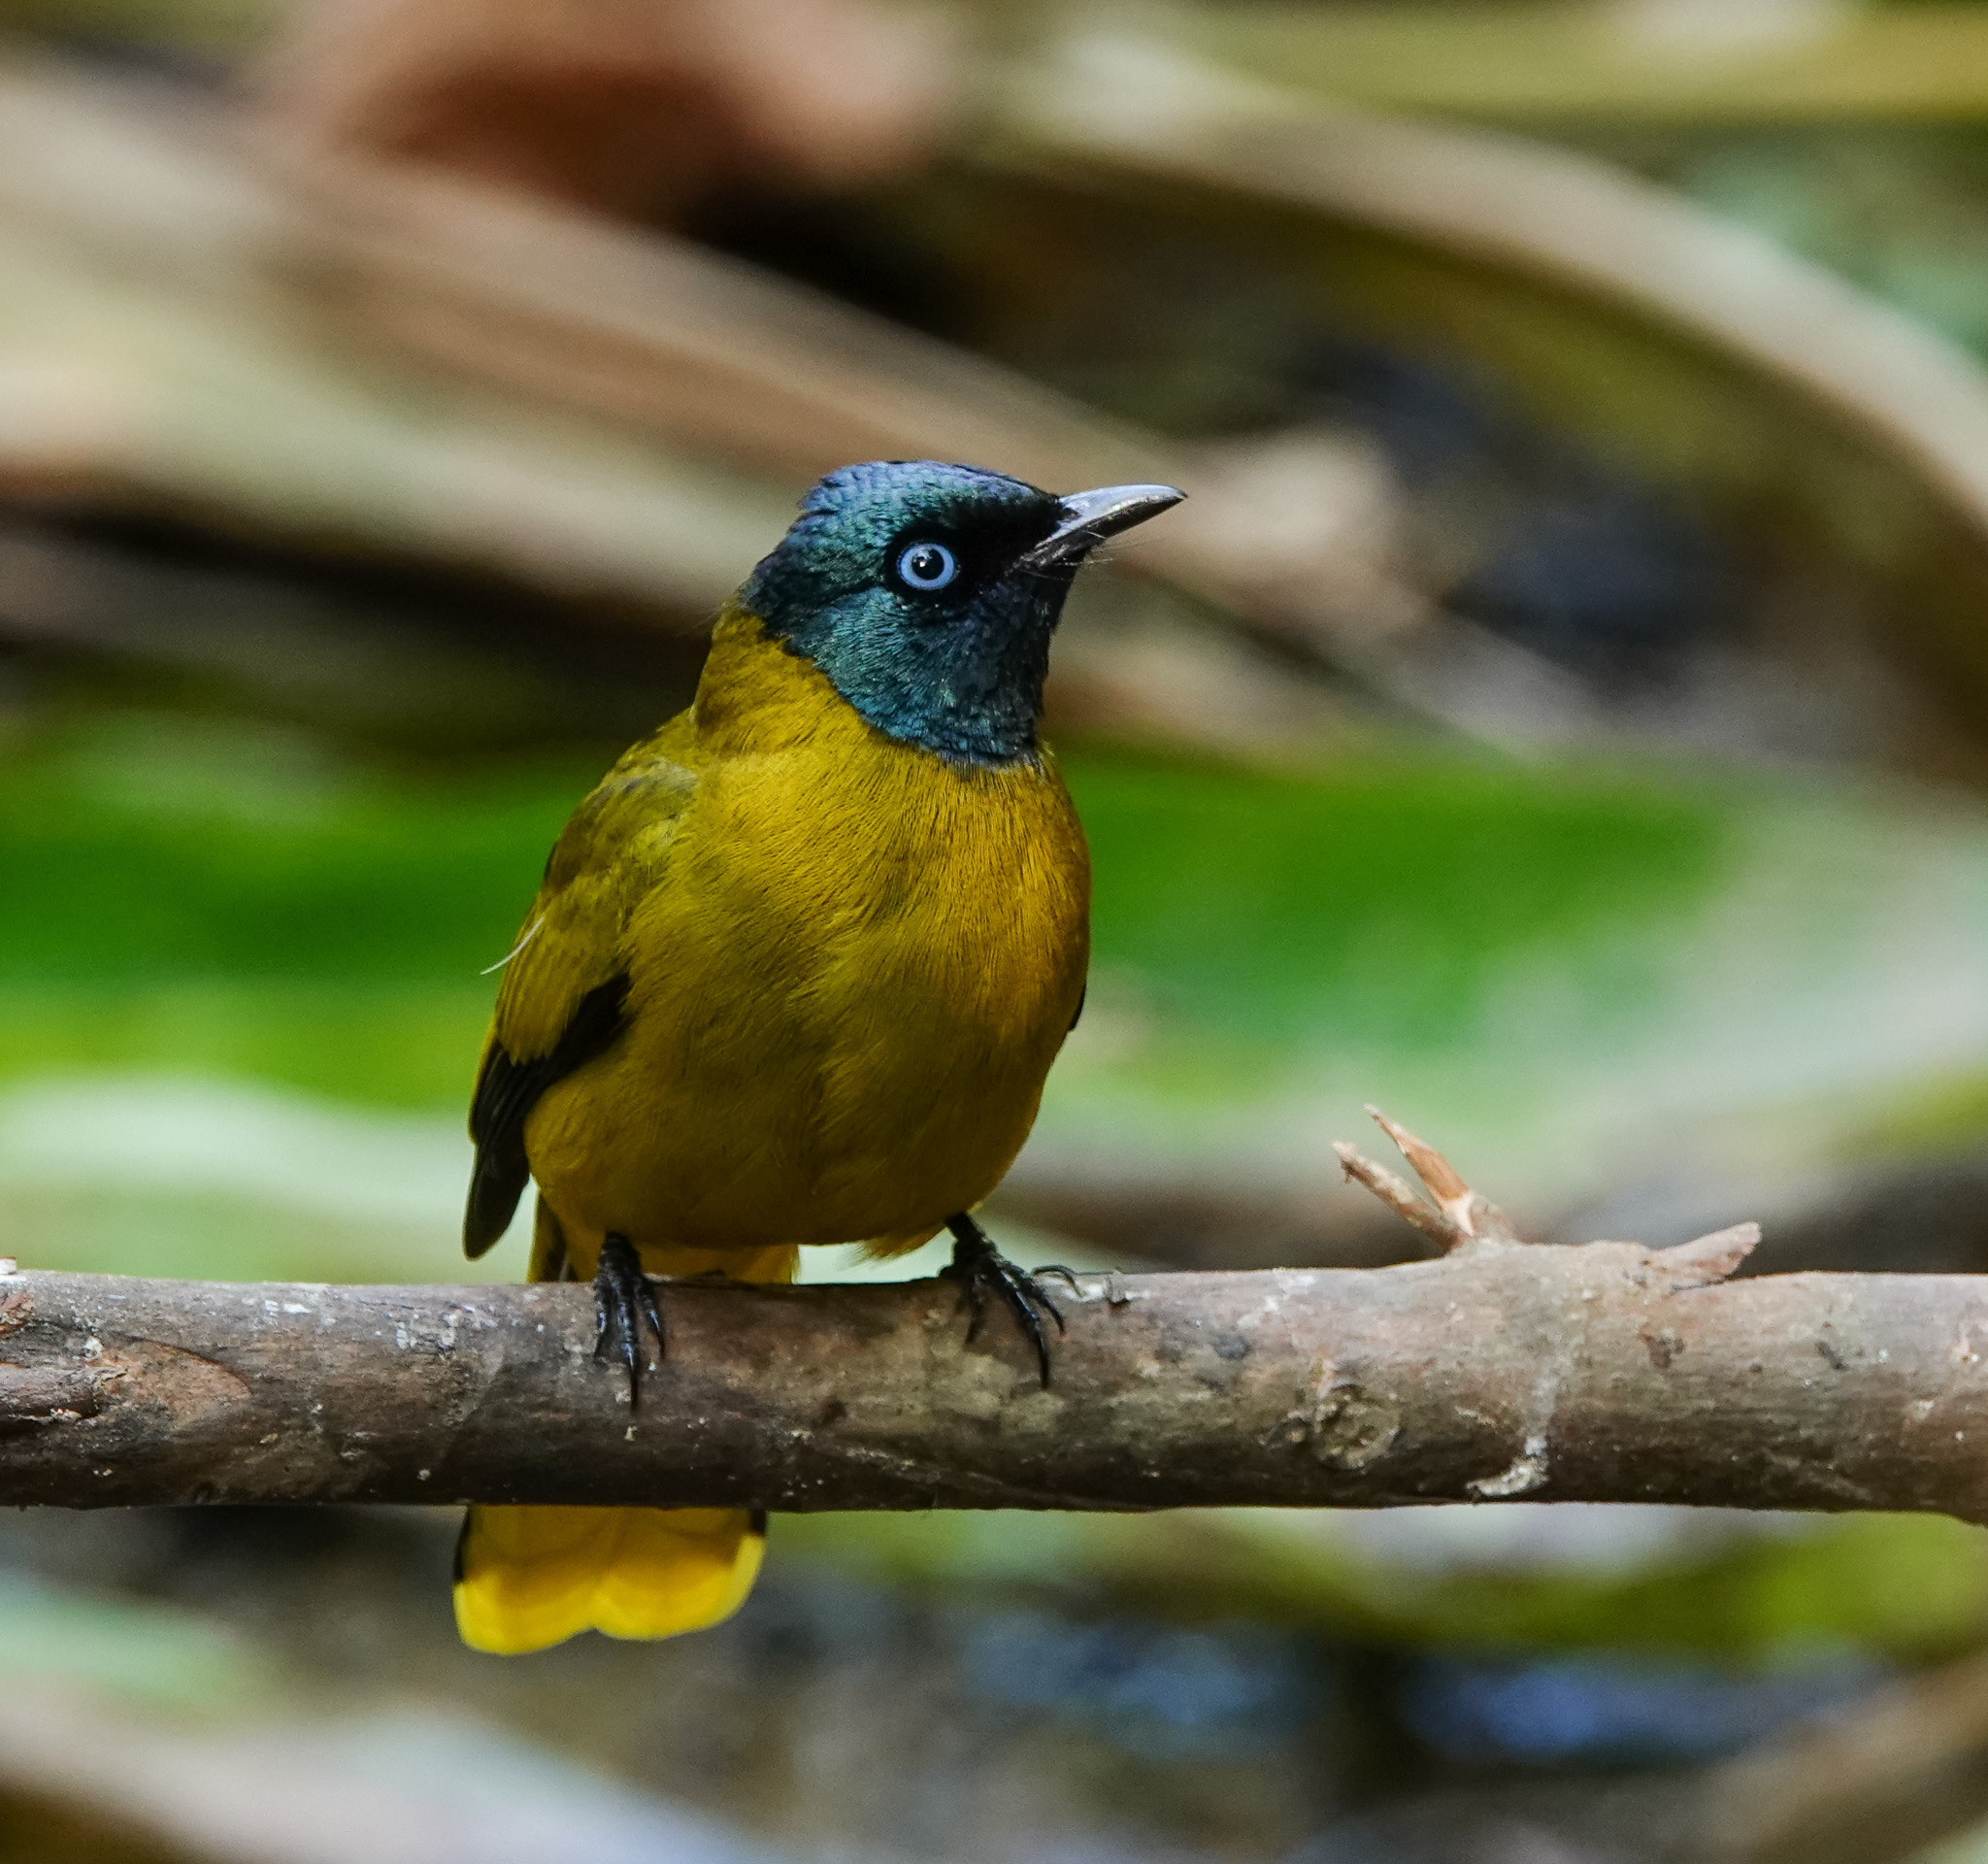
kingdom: Animalia
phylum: Chordata
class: Aves
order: Passeriformes
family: Pycnonotidae
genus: Microtarsus
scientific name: Microtarsus
